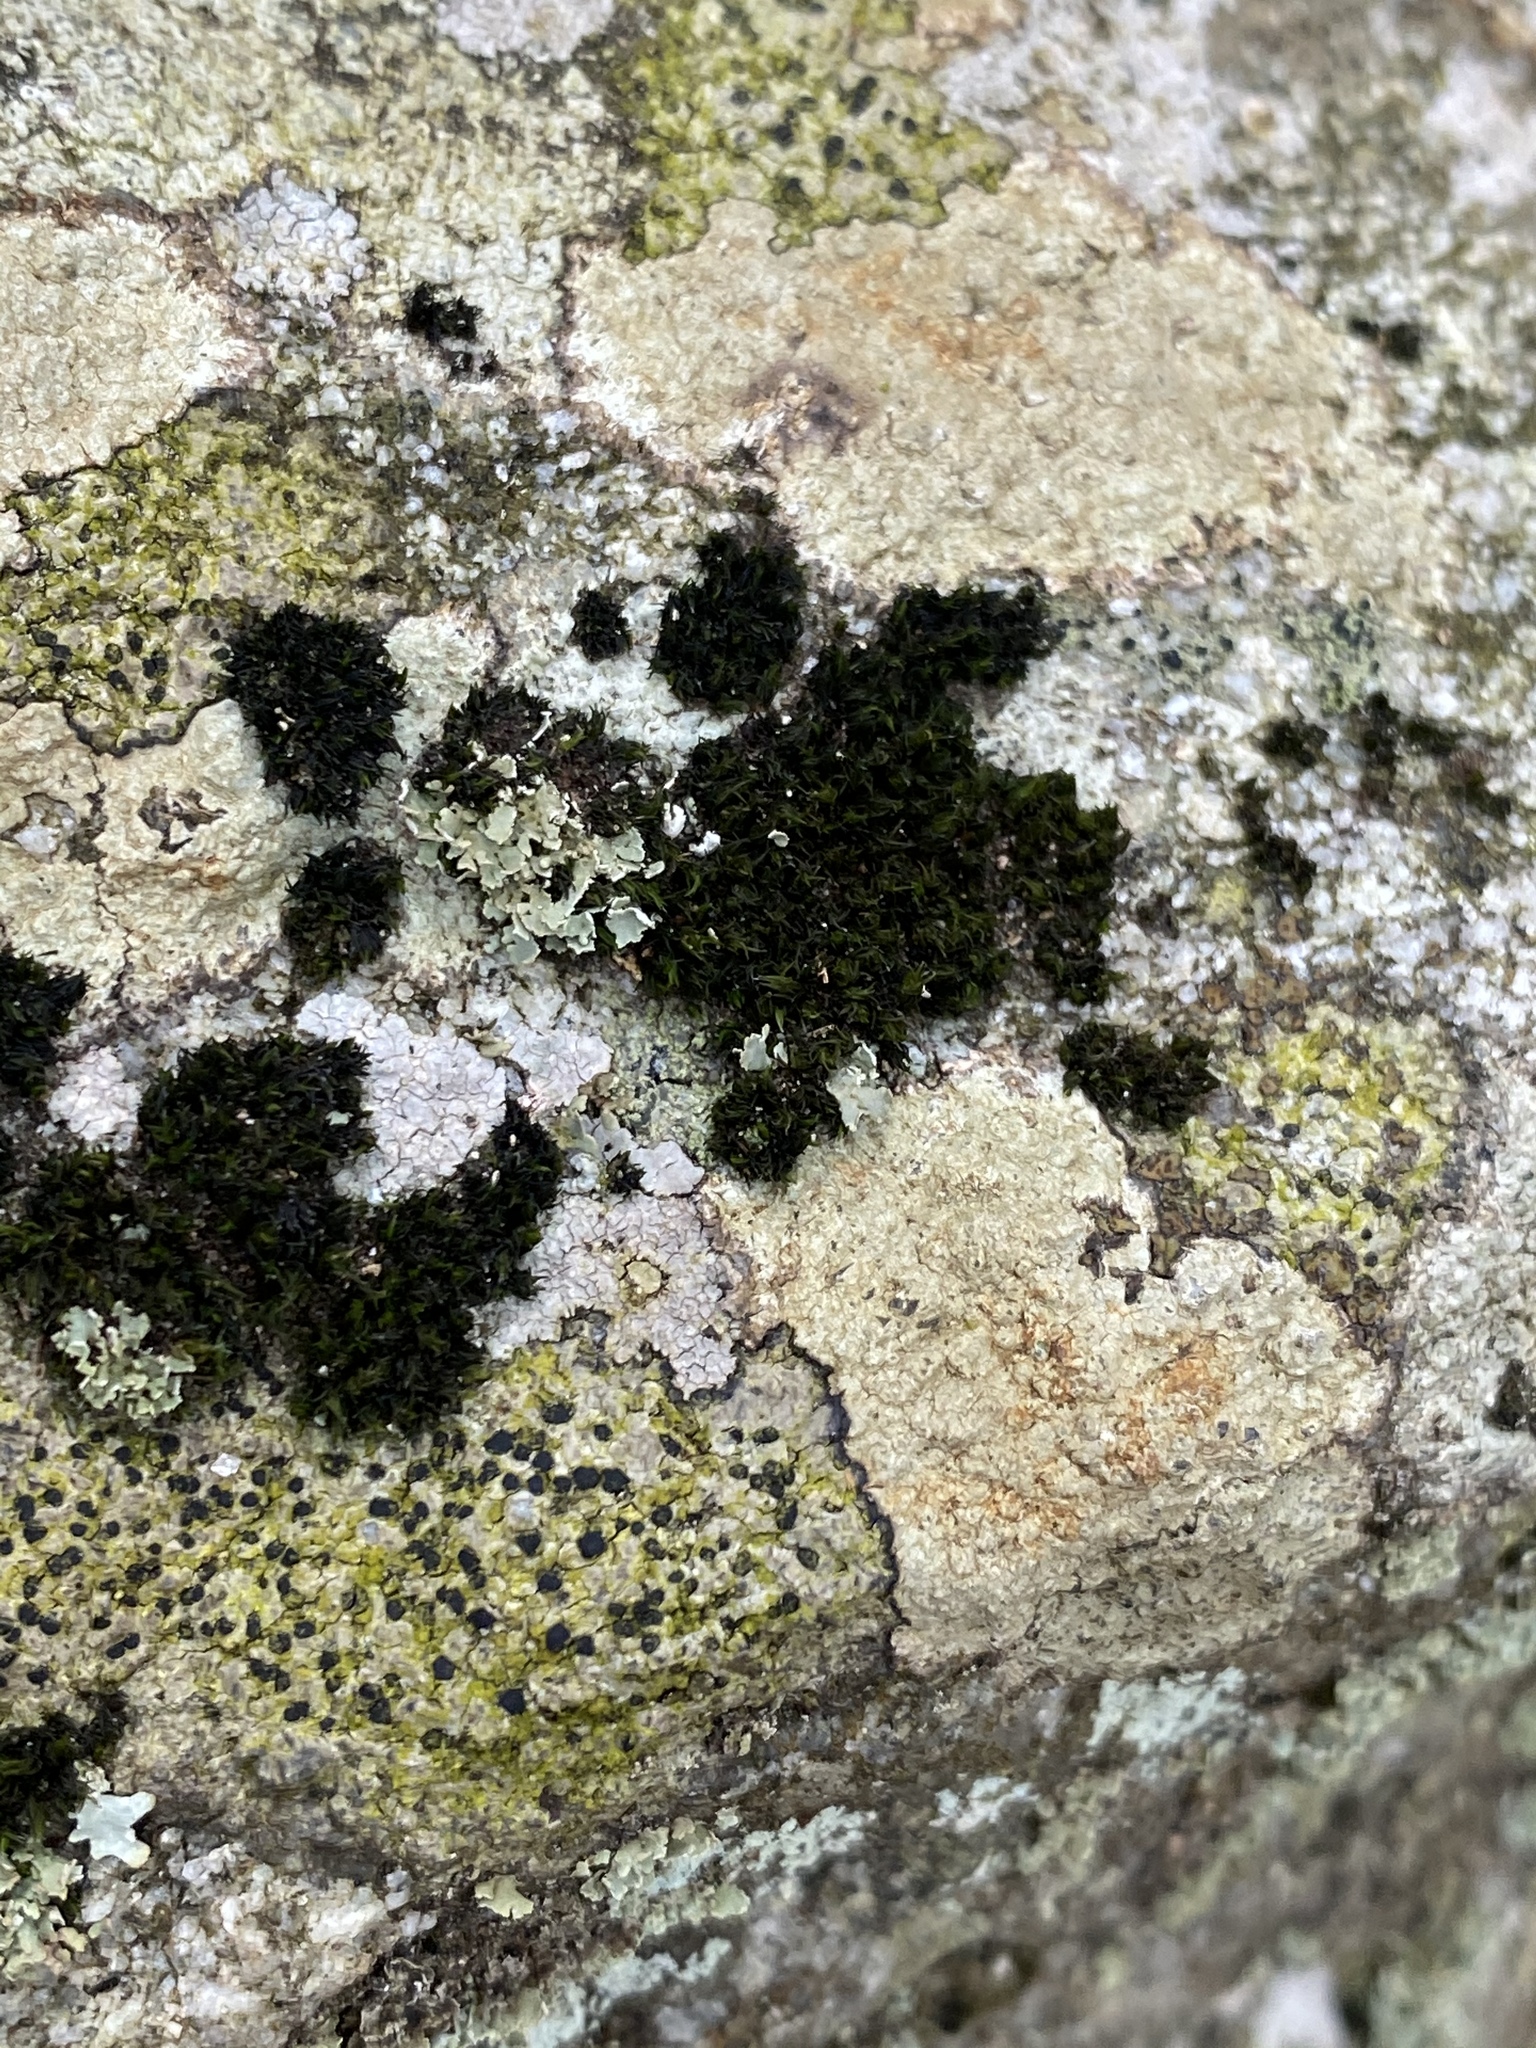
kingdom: Fungi
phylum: Ascomycota
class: Lecanoromycetes
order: Lecanorales
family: Lecanoraceae
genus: Lecidella
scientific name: Lecidella elaeochroma
